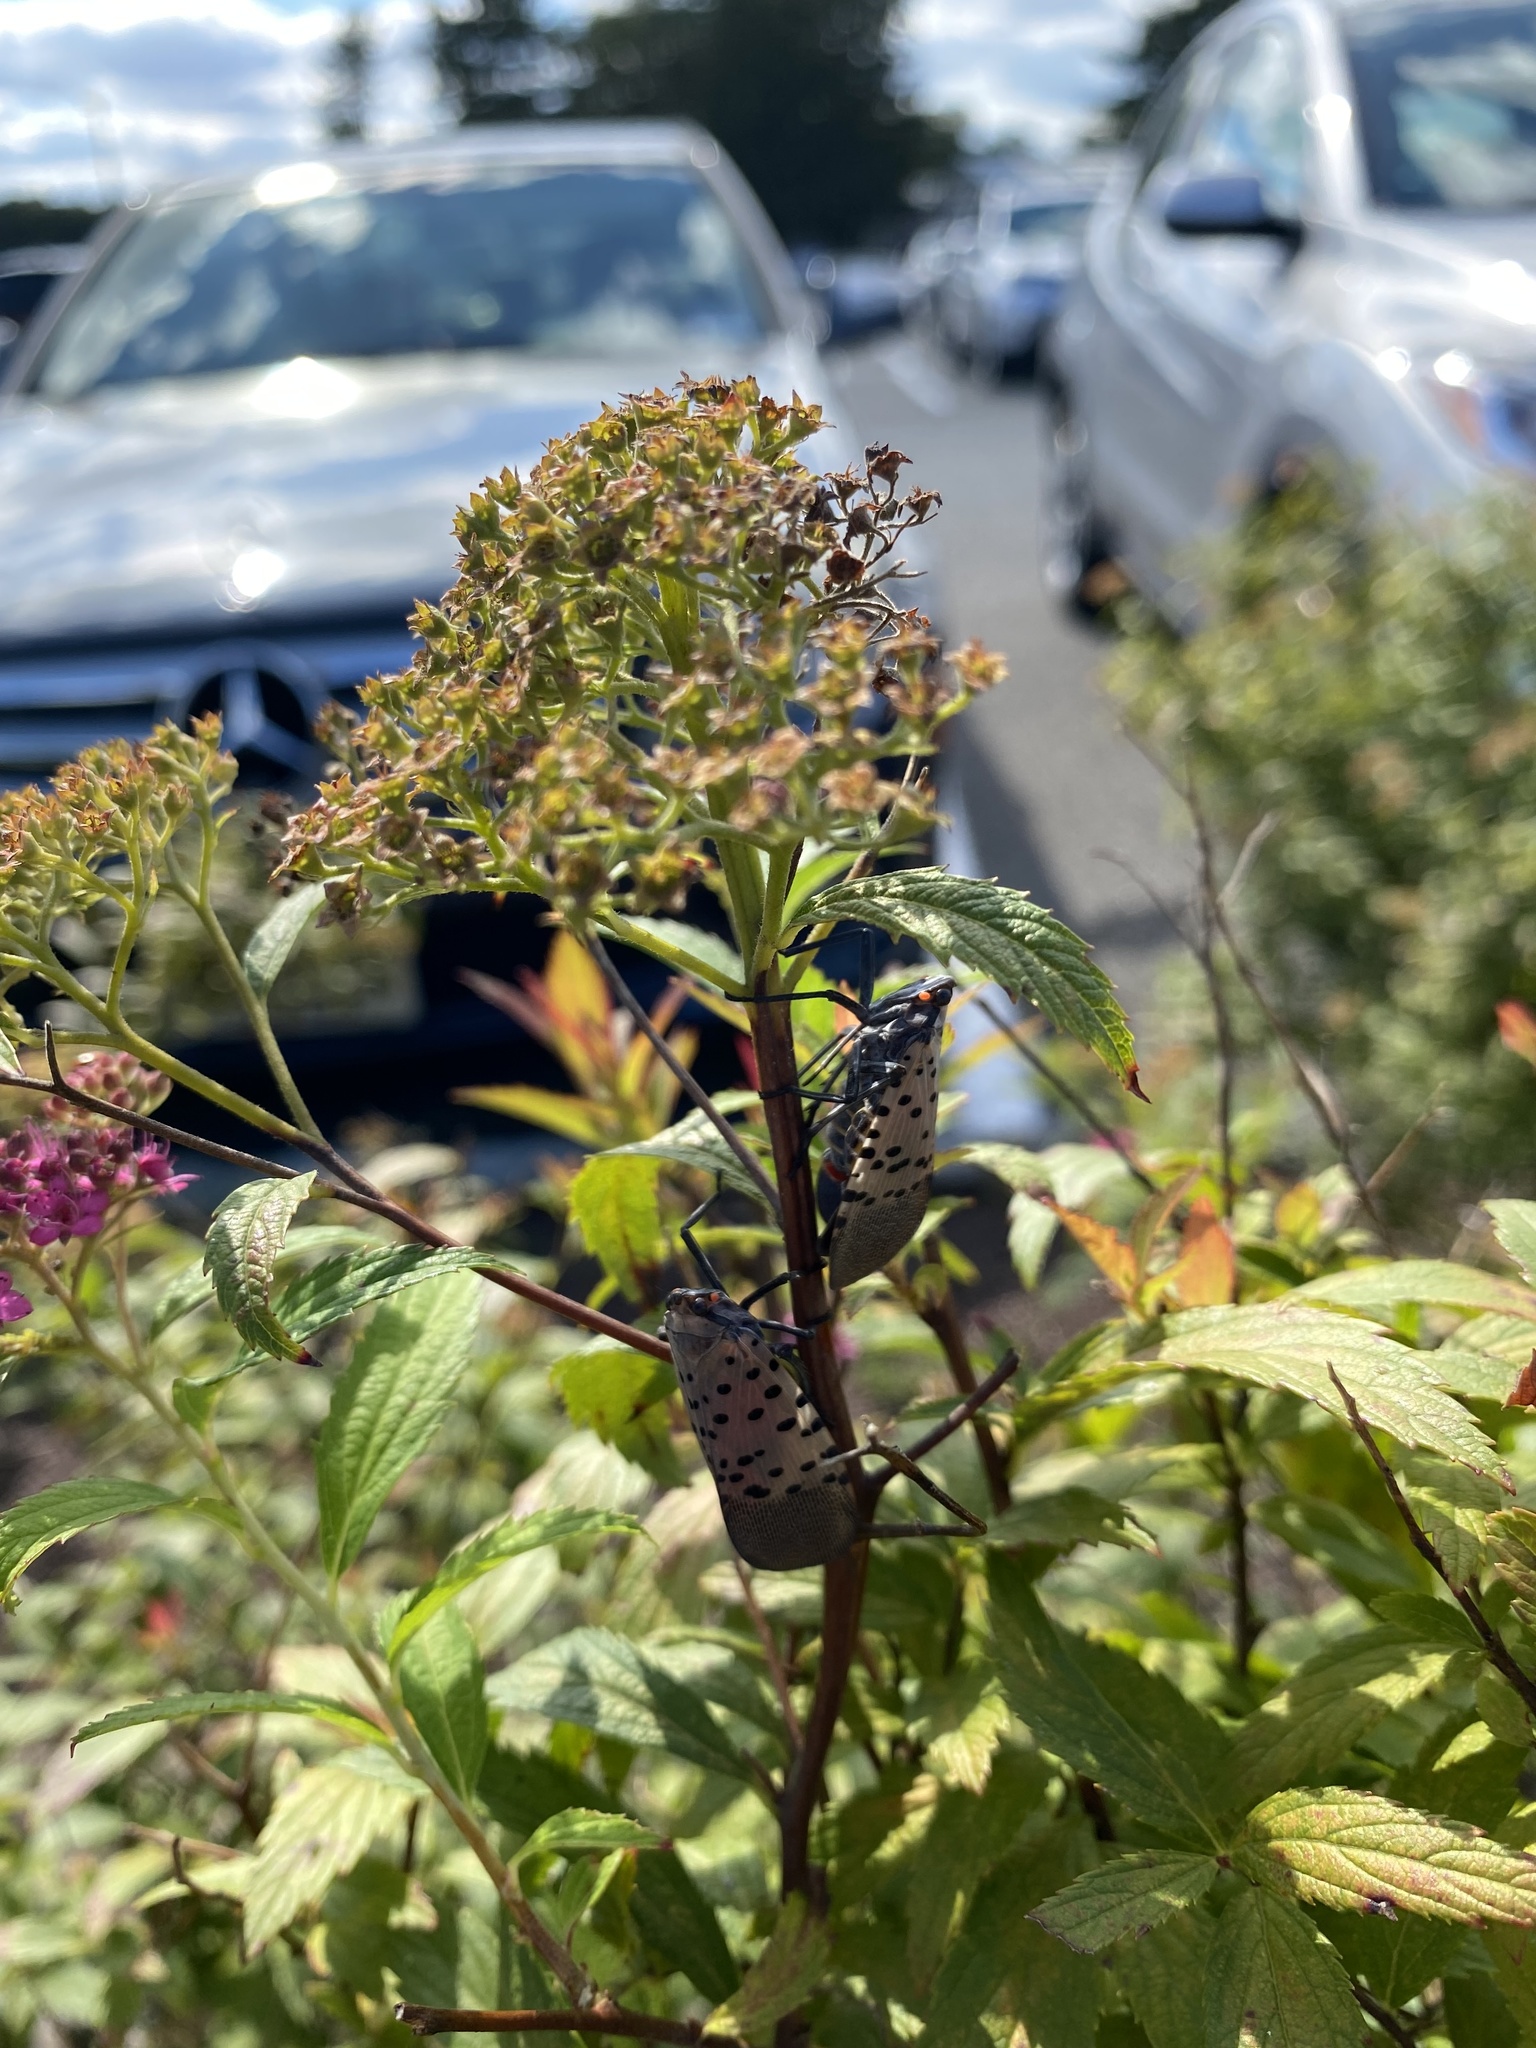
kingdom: Animalia
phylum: Arthropoda
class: Insecta
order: Hemiptera
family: Fulgoridae
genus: Lycorma
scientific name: Lycorma delicatula
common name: Spotted lanternfly
